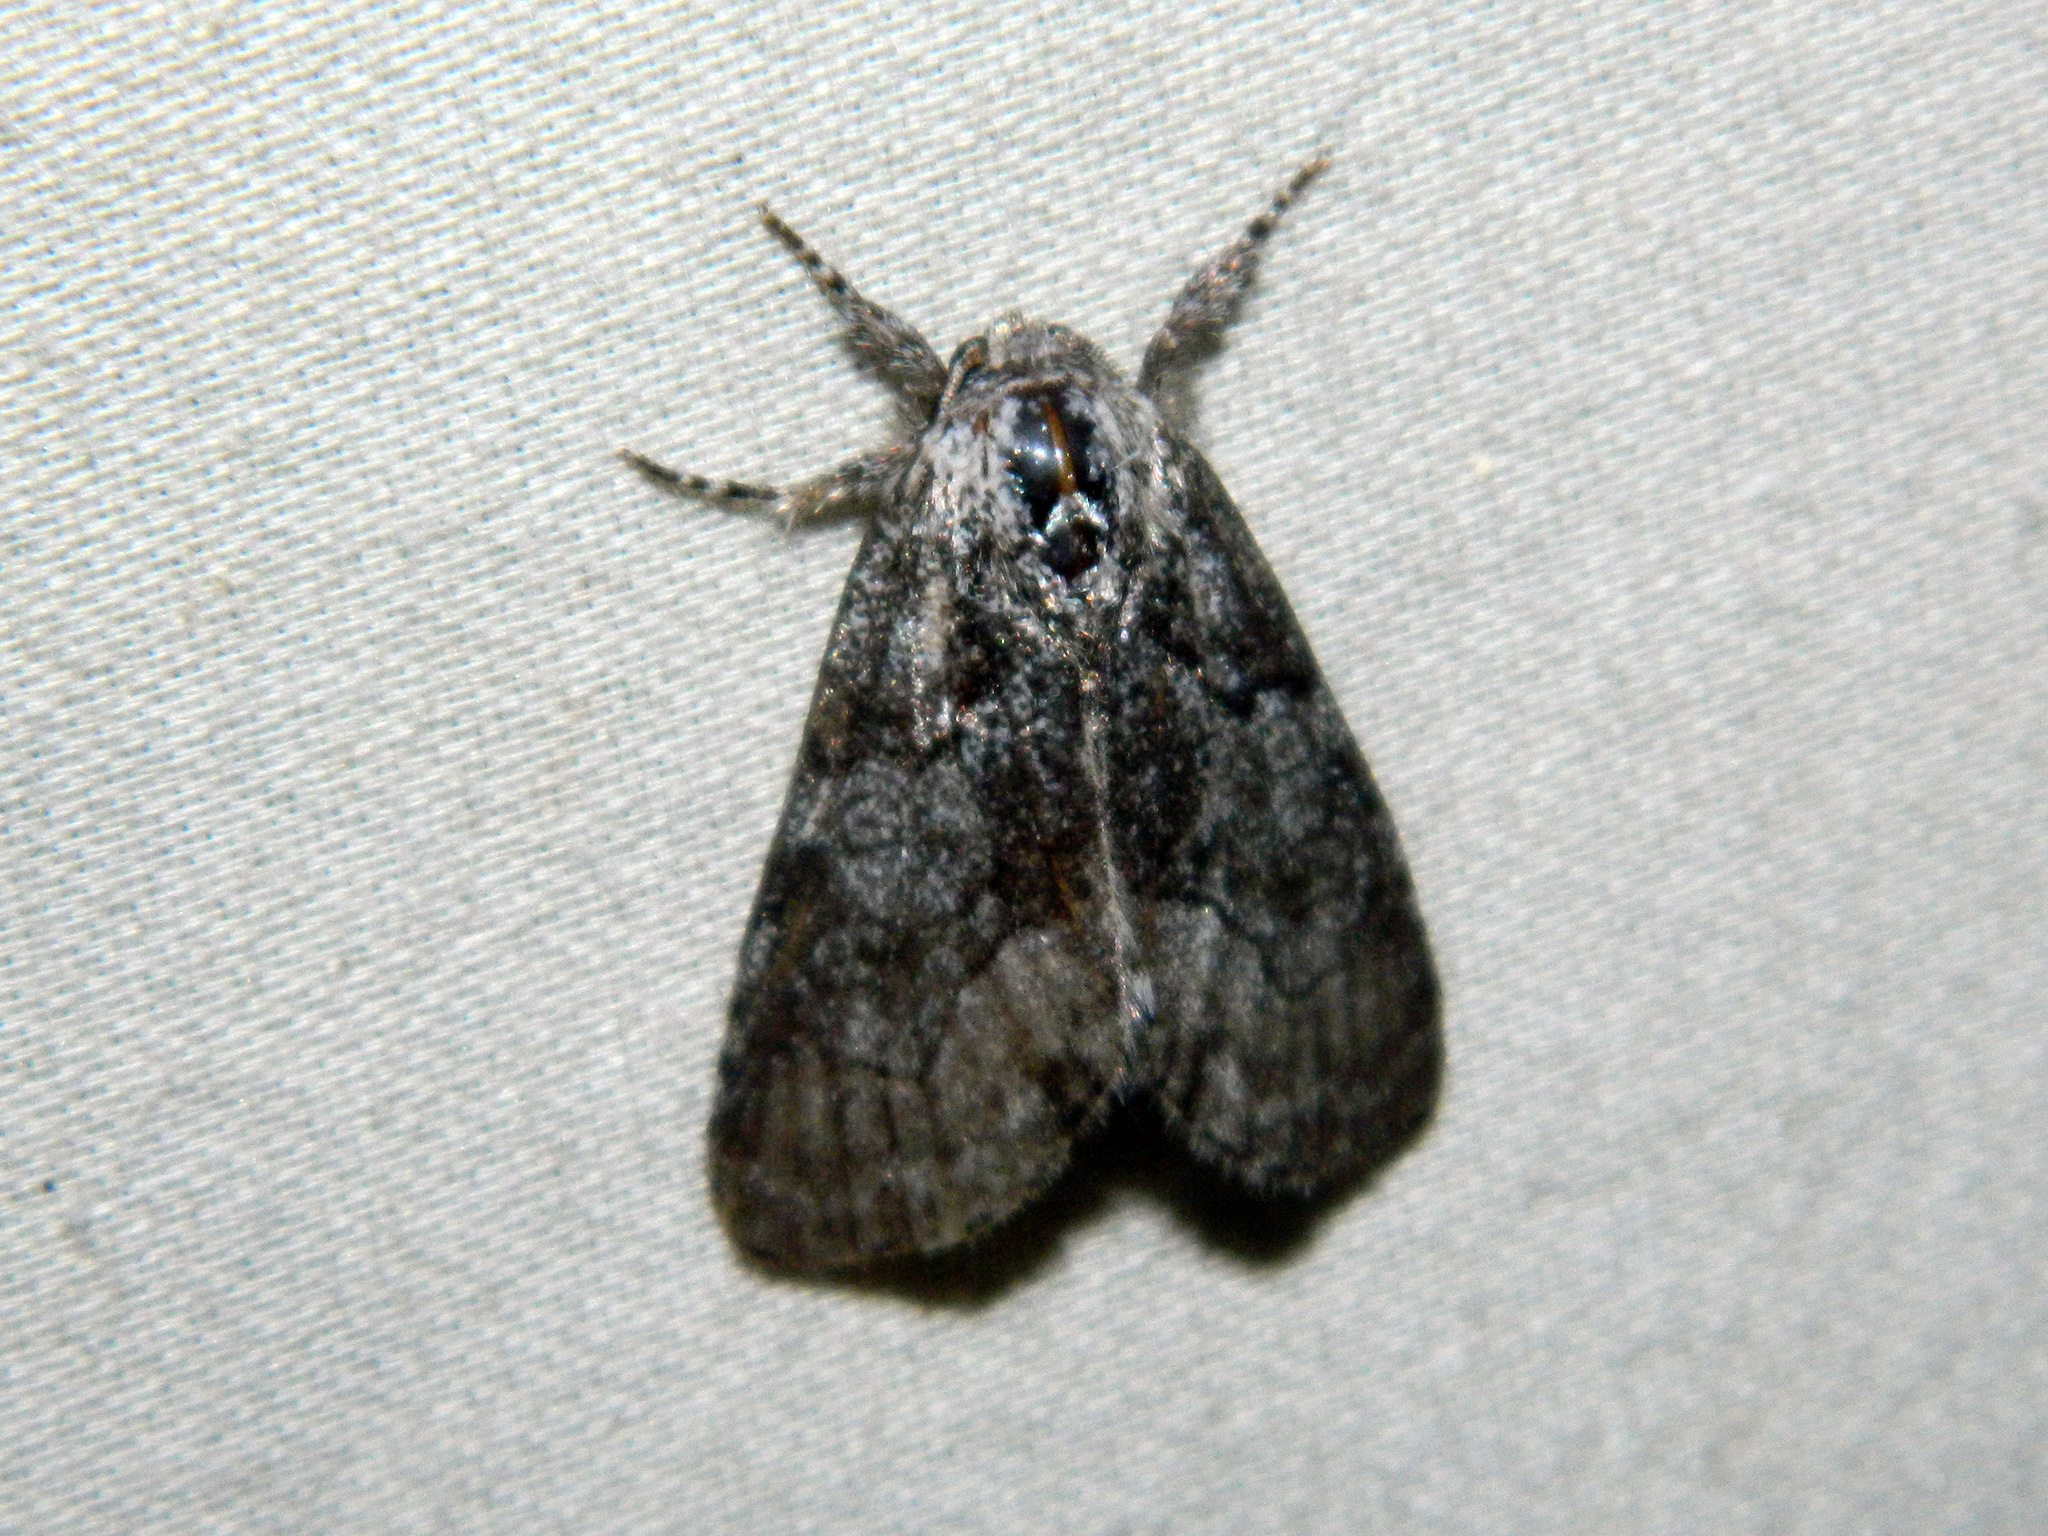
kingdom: Animalia
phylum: Arthropoda
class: Insecta
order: Lepidoptera
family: Noctuidae
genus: Raphia
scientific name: Raphia frater
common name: Brother
